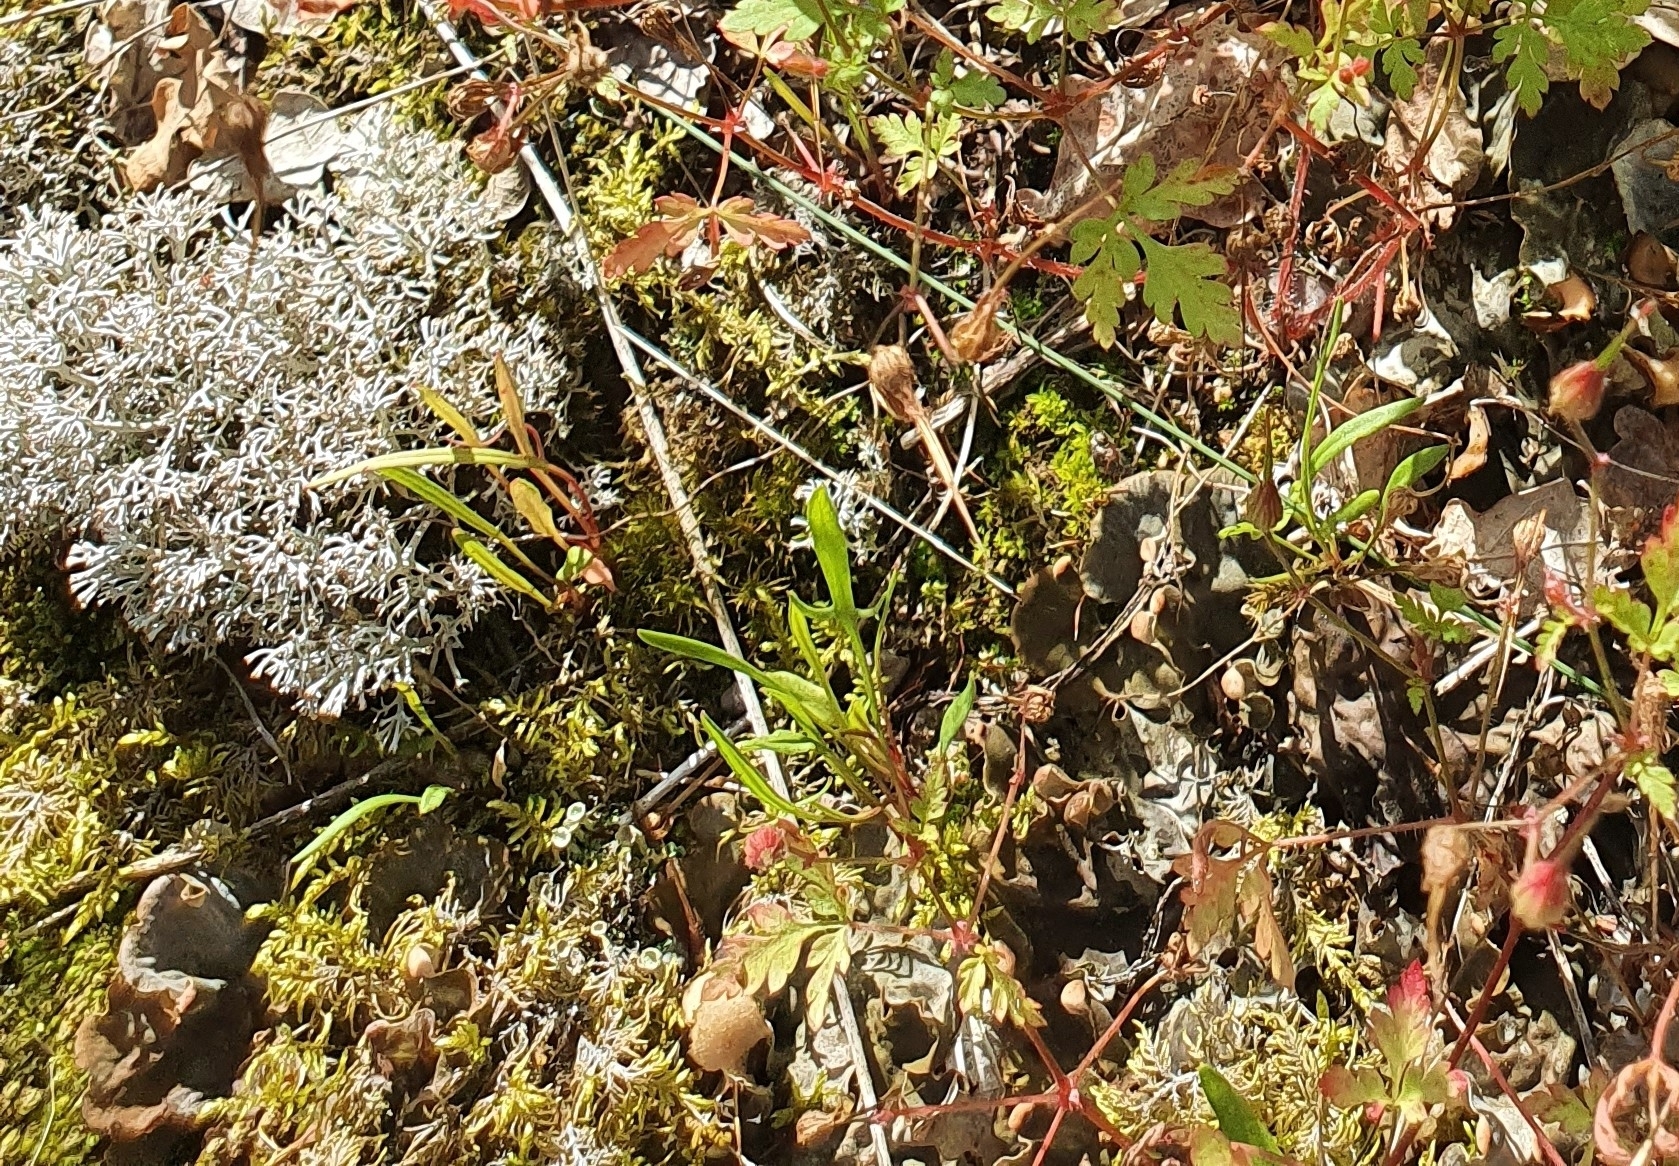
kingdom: Plantae
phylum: Tracheophyta
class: Magnoliopsida
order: Caryophyllales
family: Polygonaceae
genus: Rumex
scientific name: Rumex acetosella
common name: Common sheep sorrel
